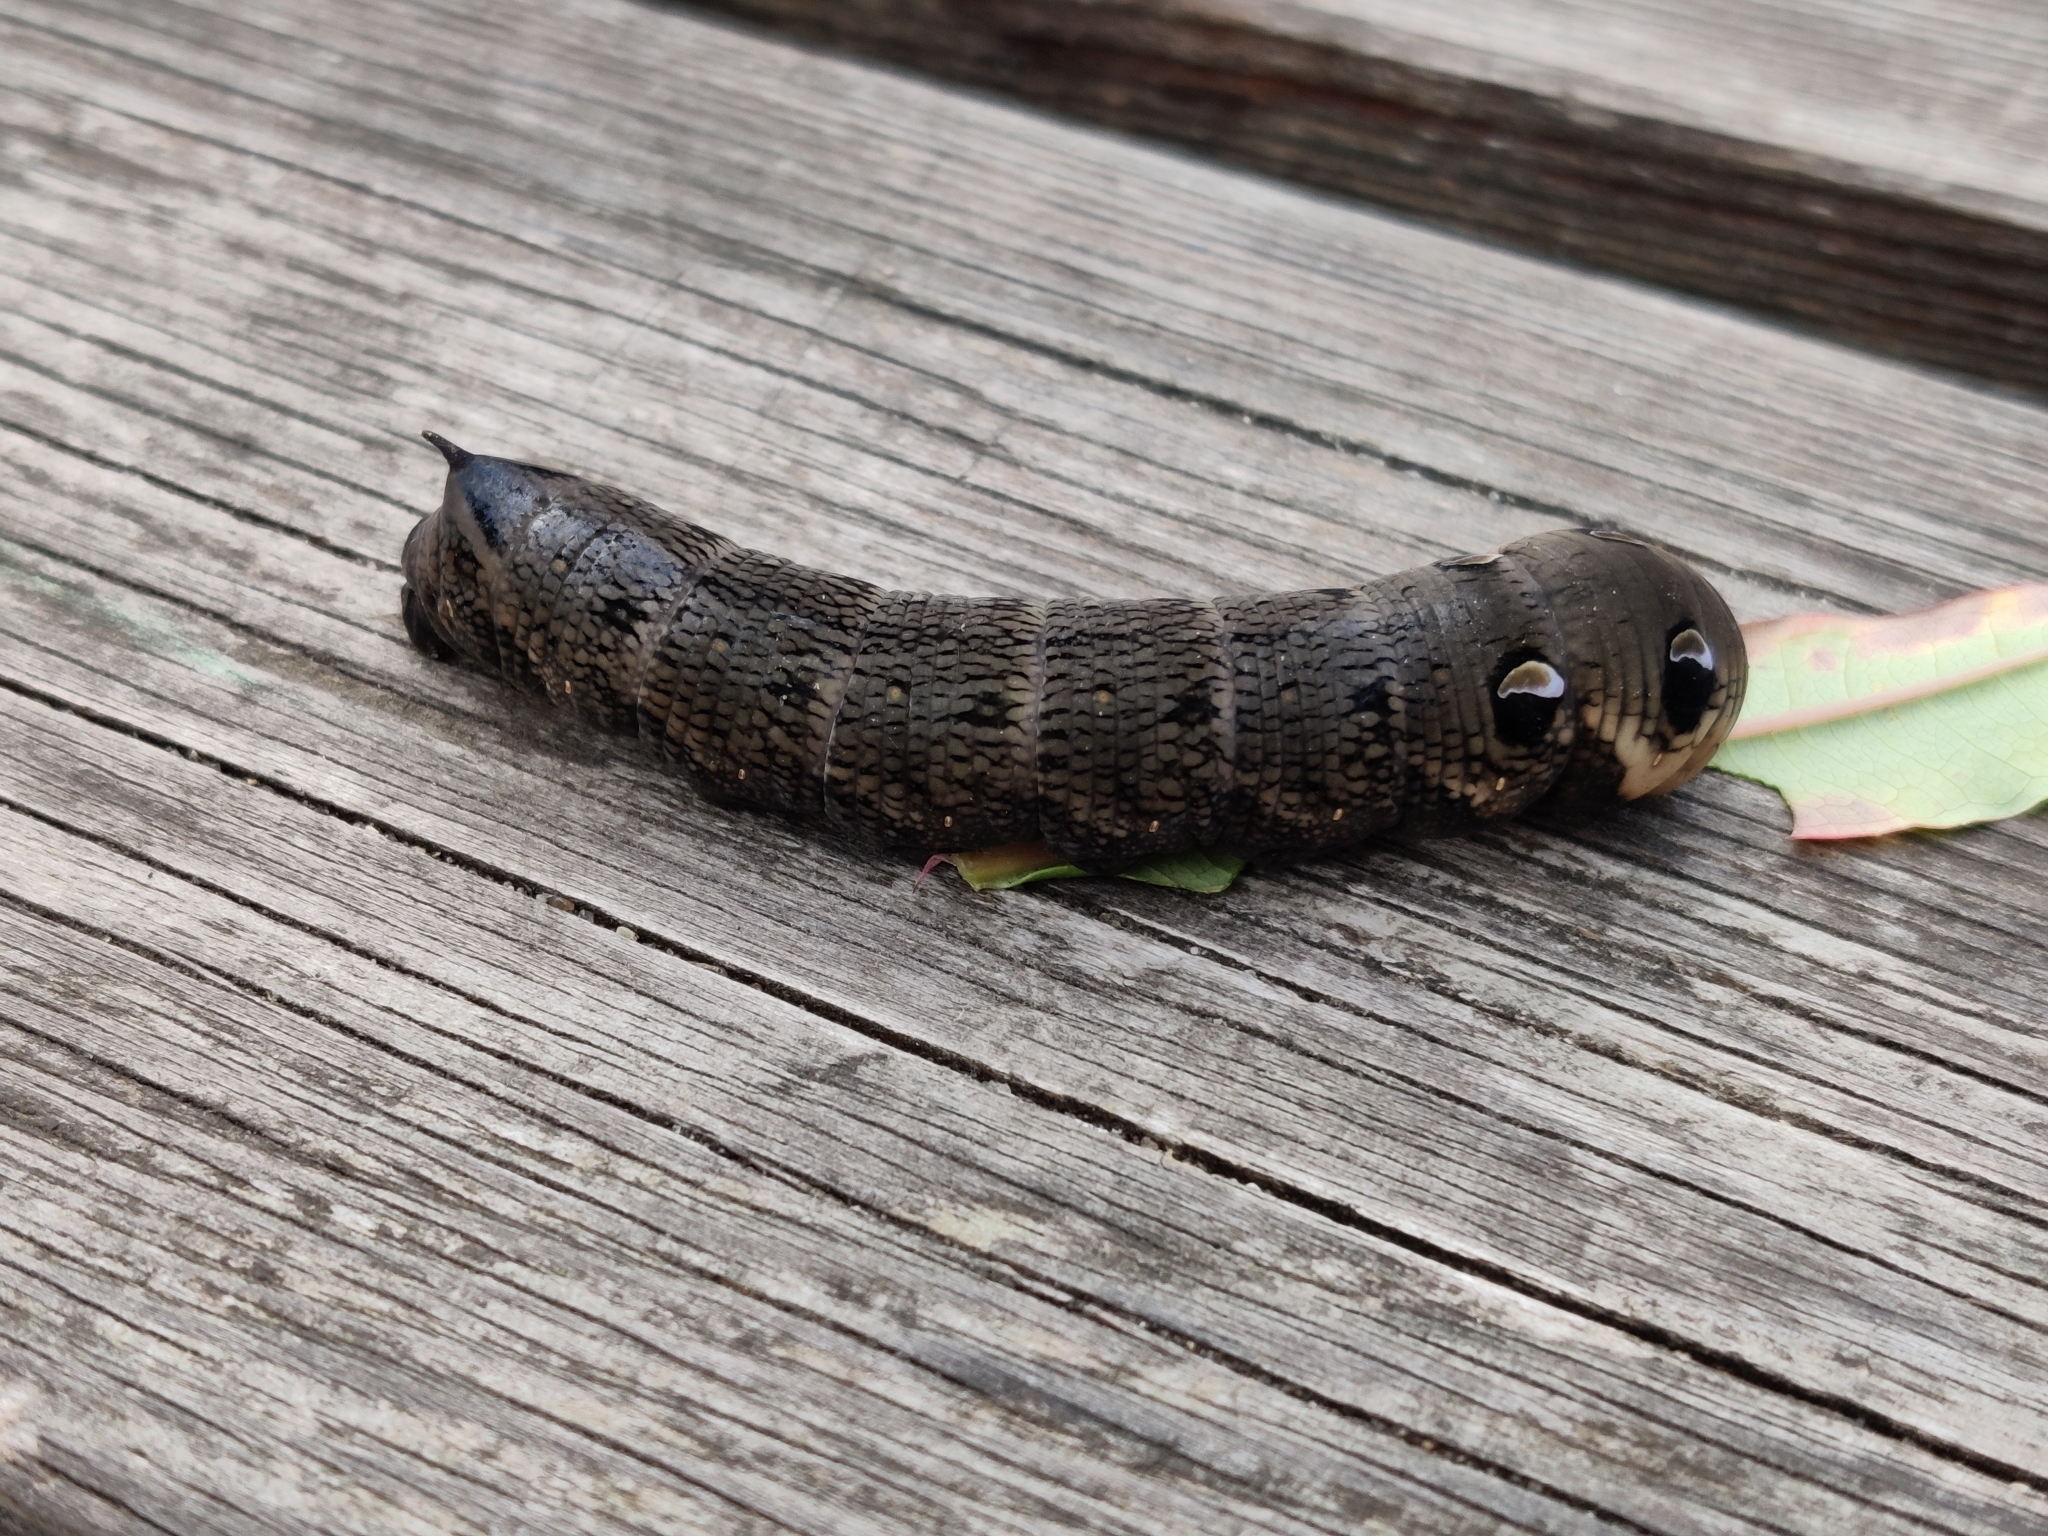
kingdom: Animalia
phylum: Arthropoda
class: Insecta
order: Lepidoptera
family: Sphingidae
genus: Deilephila
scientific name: Deilephila elpenor
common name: Elephant hawk-moth
